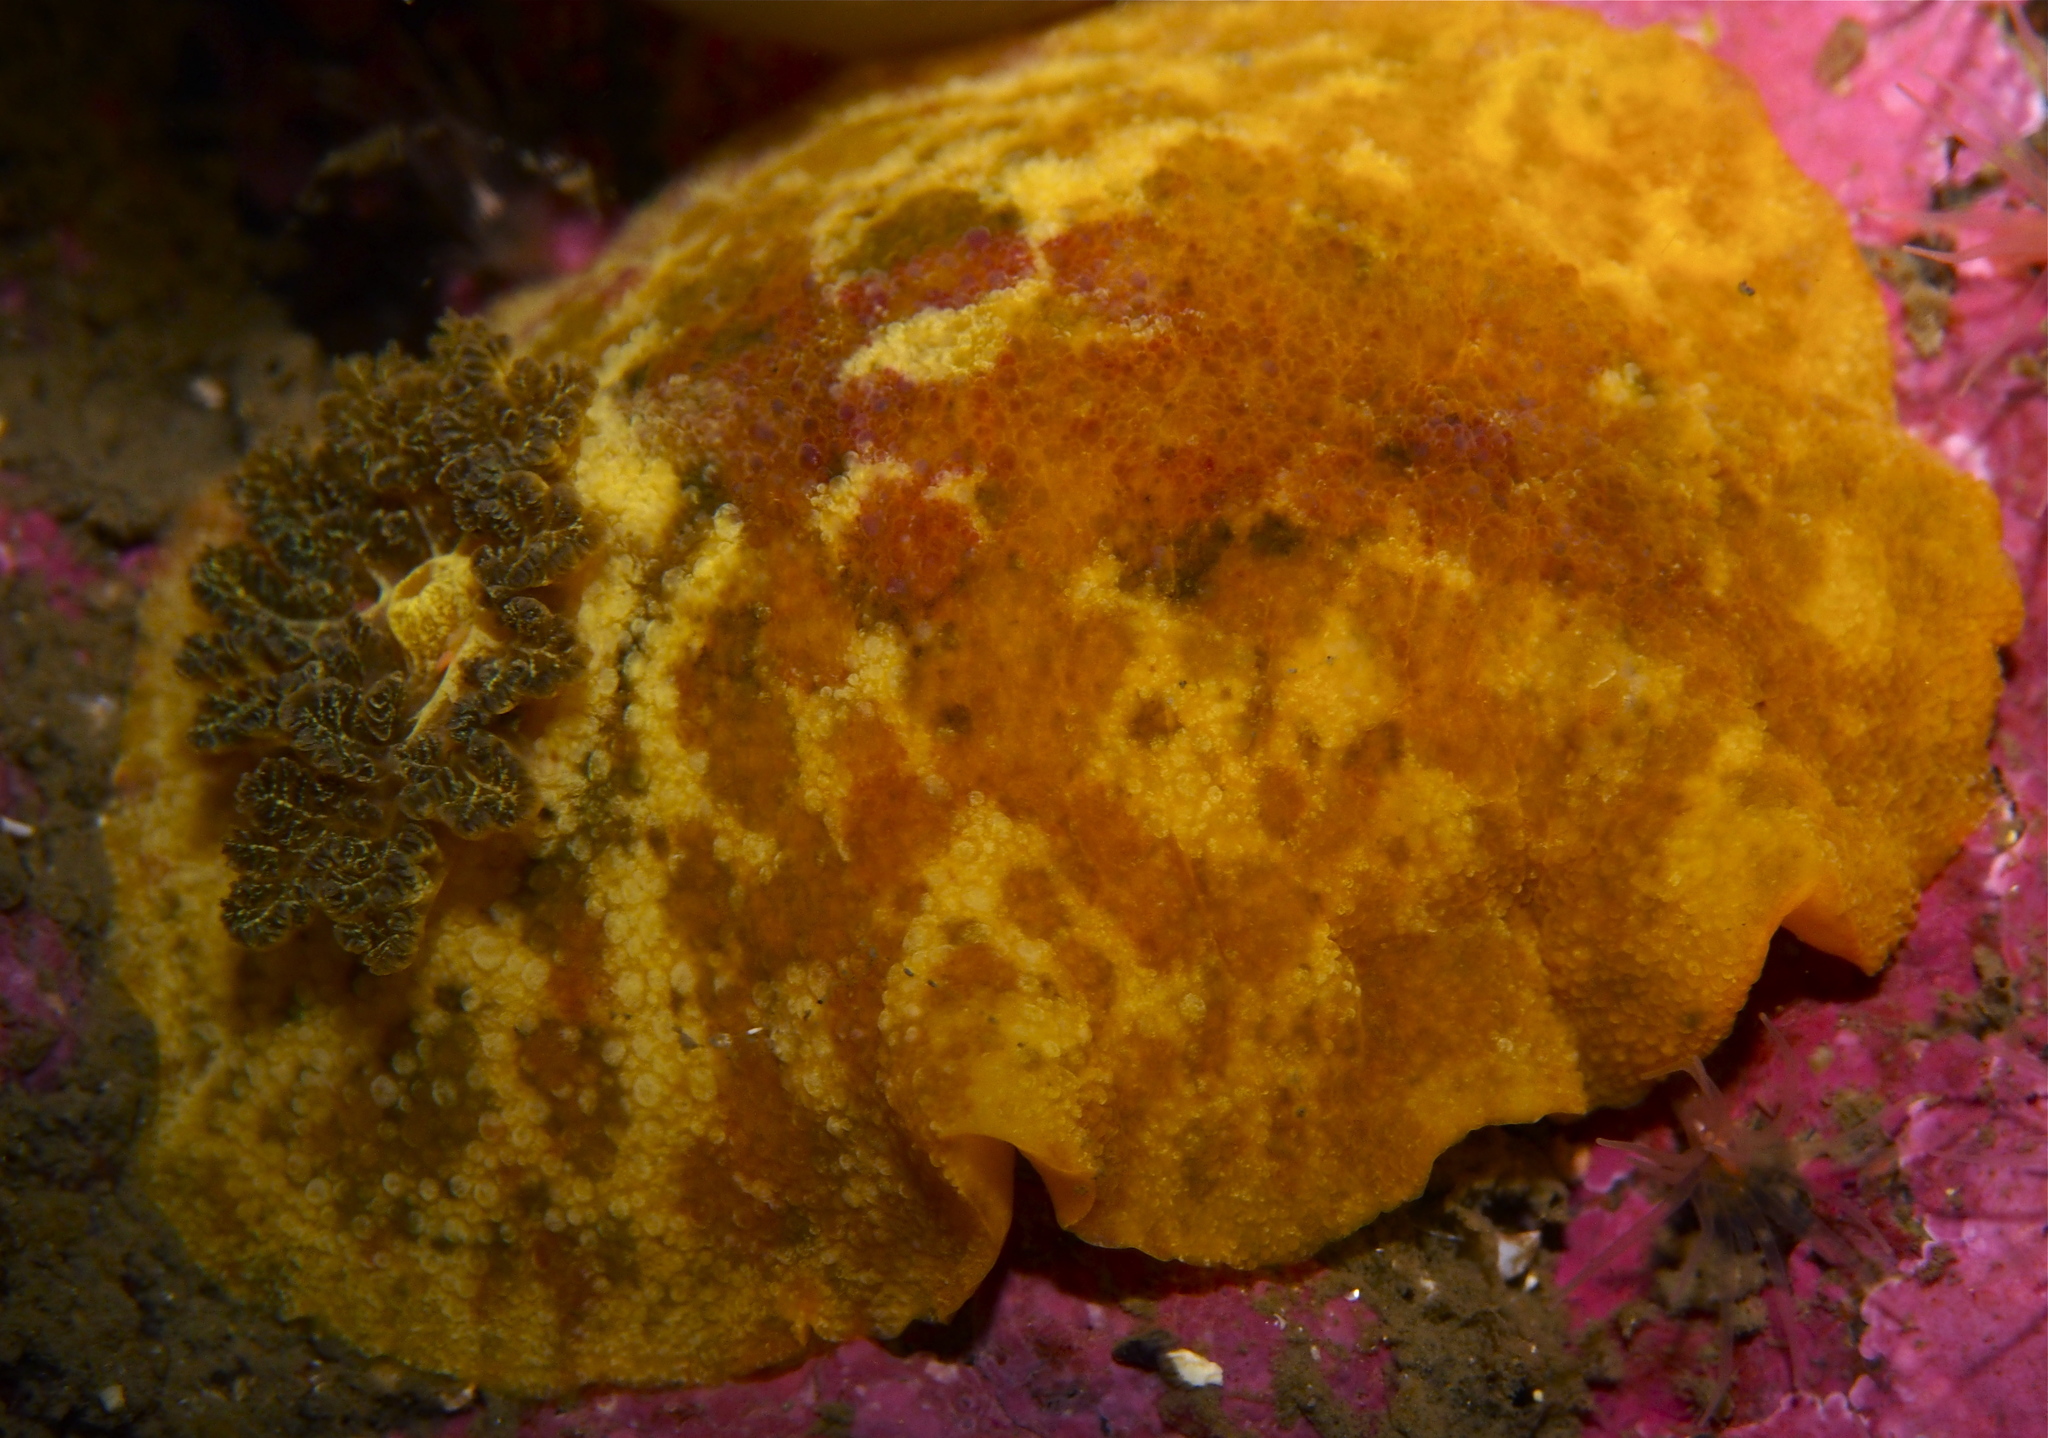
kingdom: Animalia
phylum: Mollusca
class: Gastropoda
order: Nudibranchia
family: Dorididae
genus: Doris
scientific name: Doris pseudoargus
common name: Sea lemon
